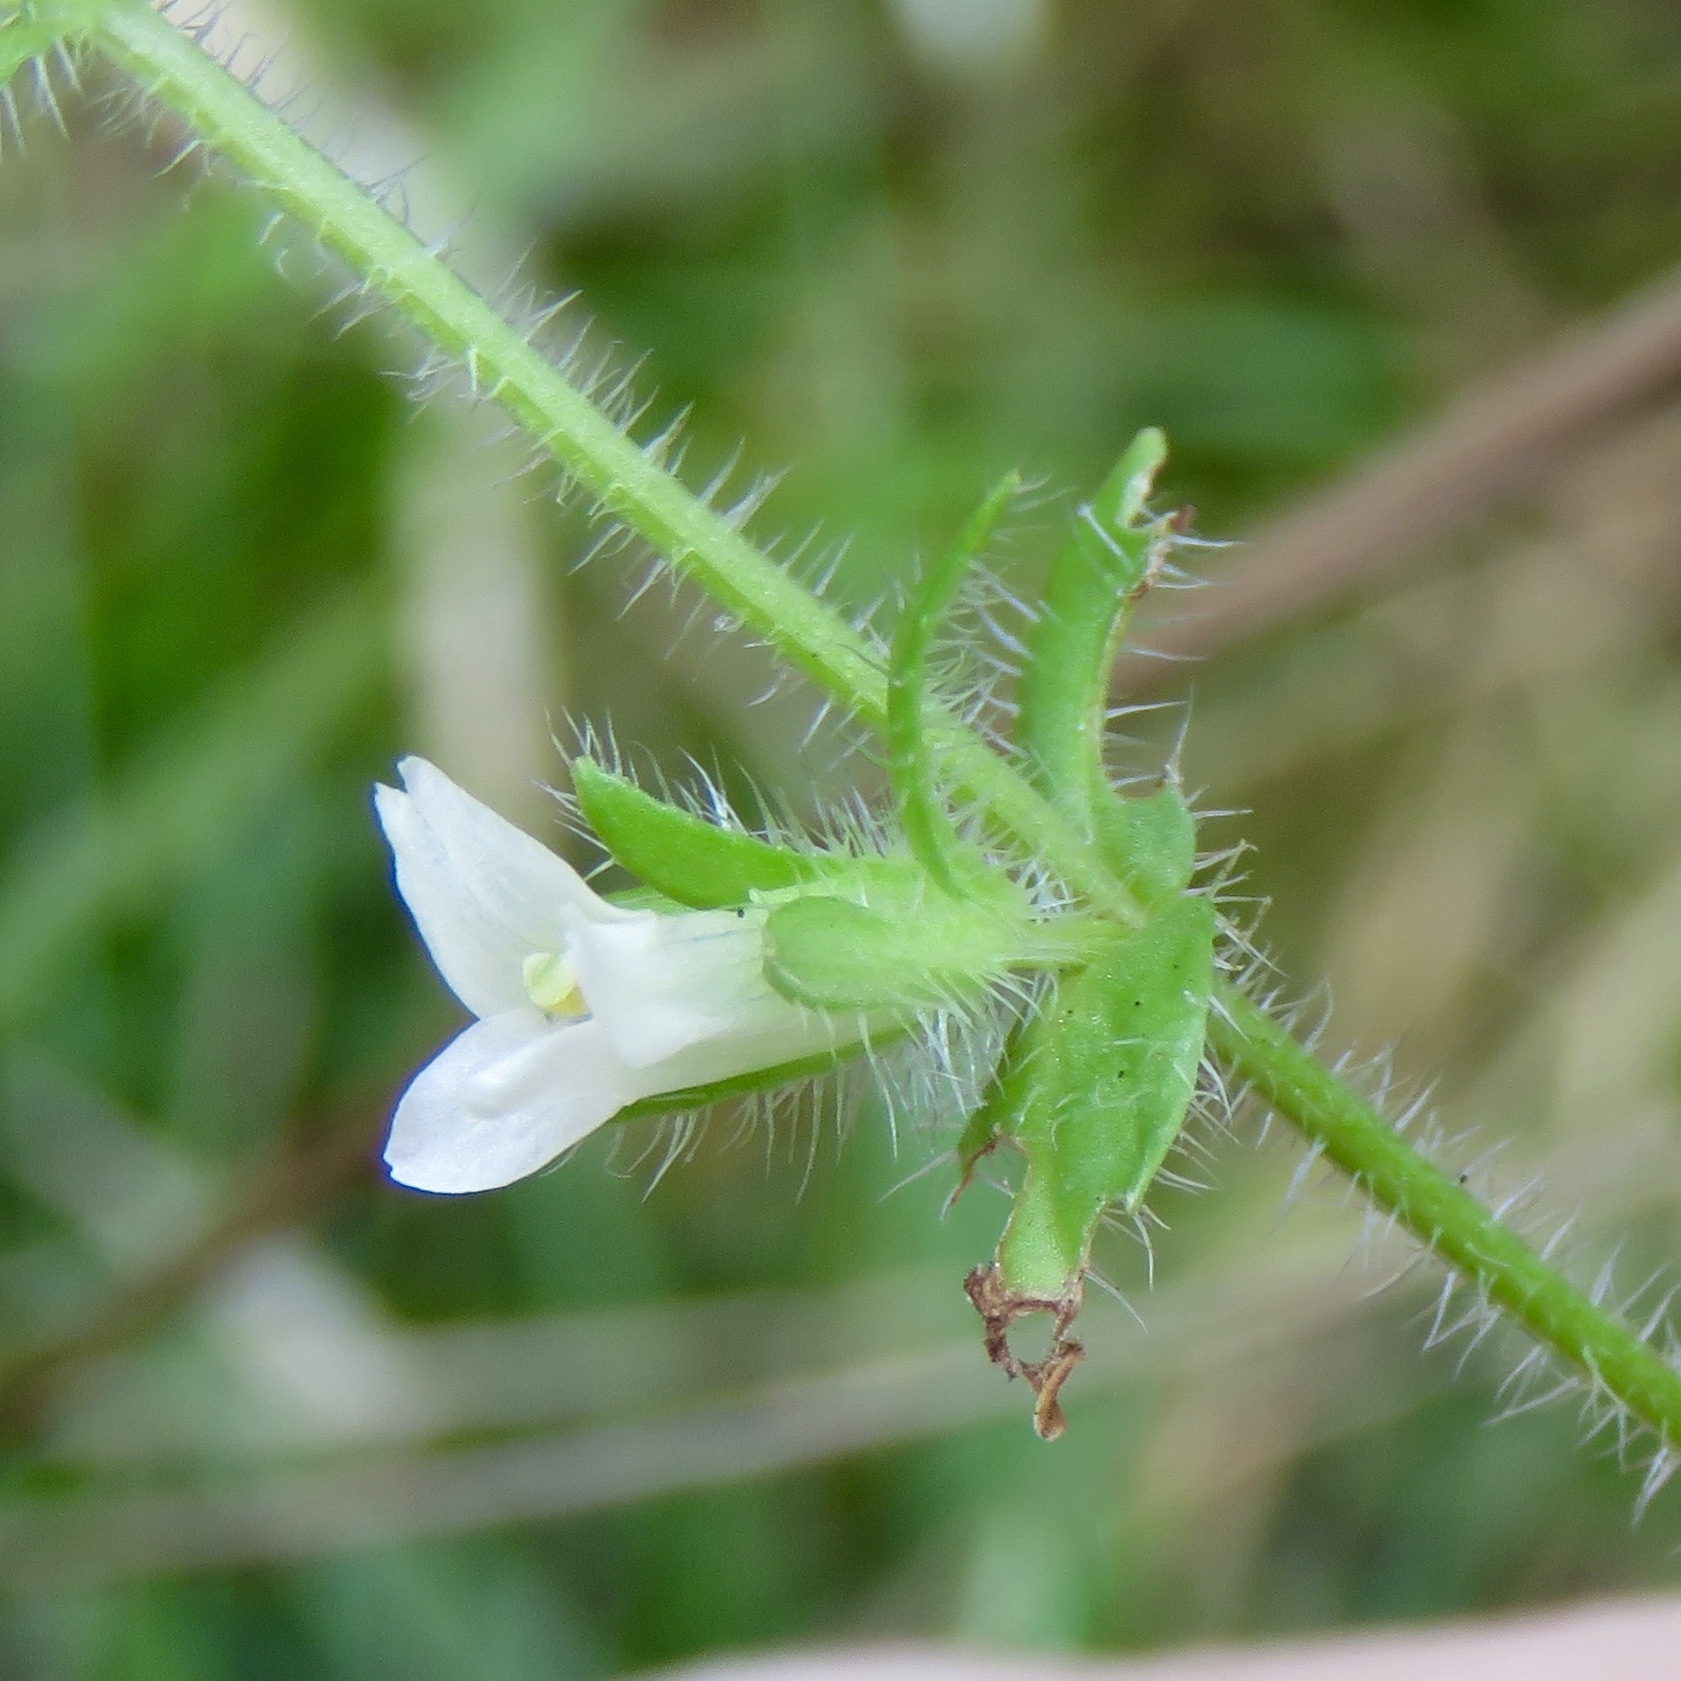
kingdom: Plantae
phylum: Tracheophyta
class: Magnoliopsida
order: Lamiales
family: Plantaginaceae
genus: Gratiola
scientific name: Gratiola pilosa
